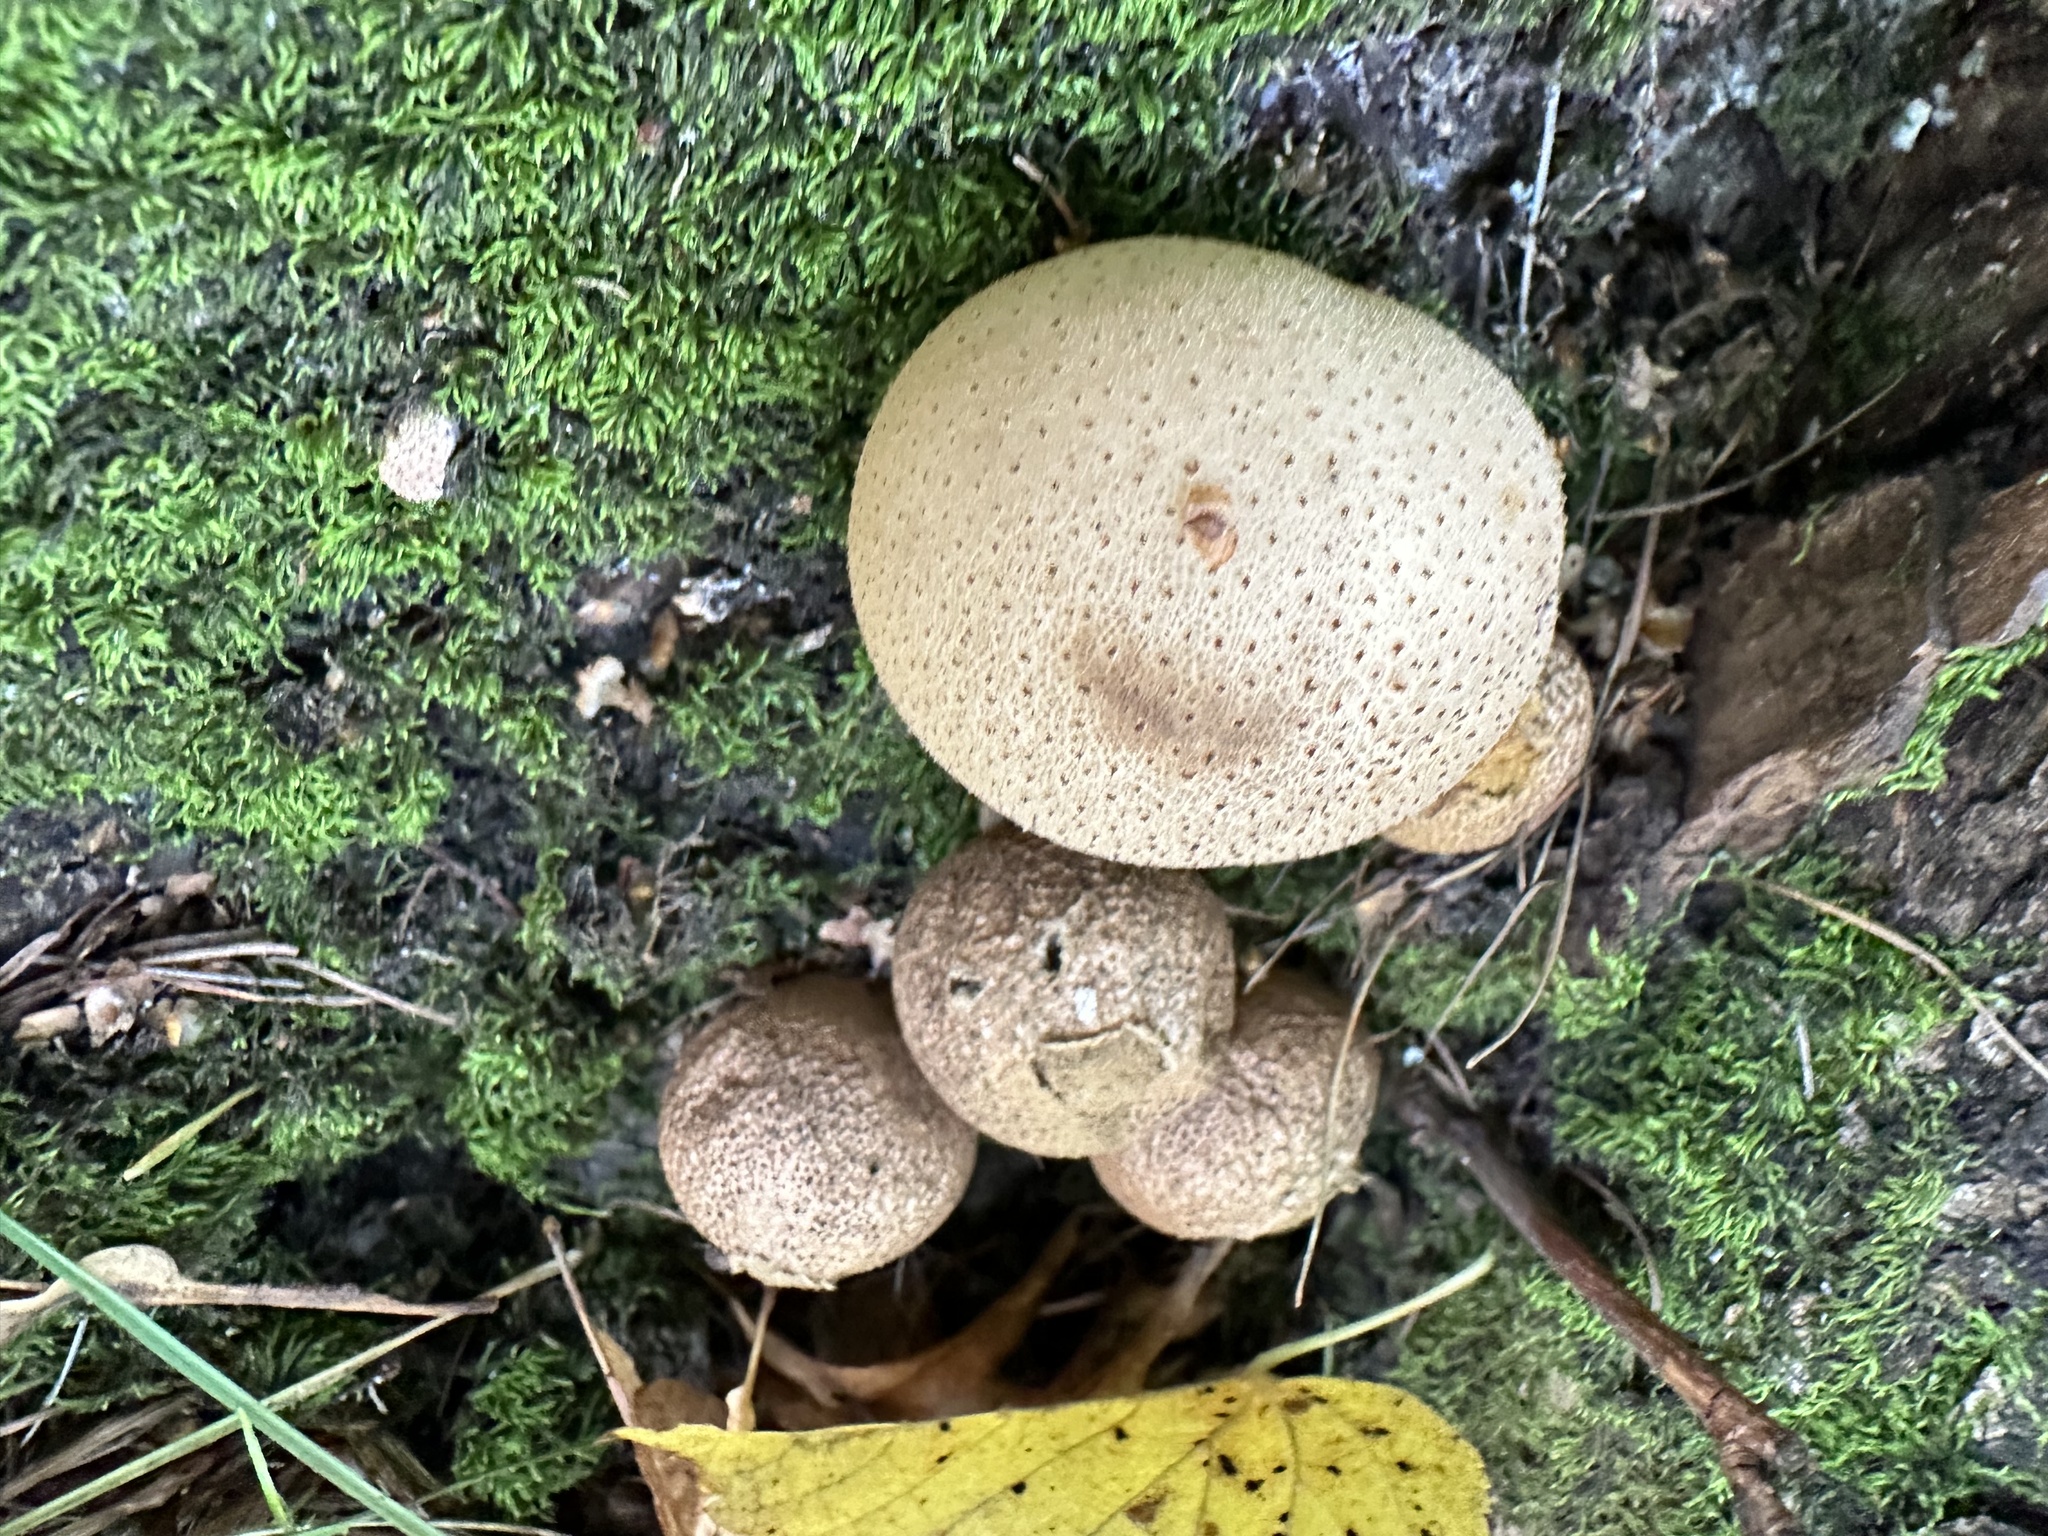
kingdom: Fungi
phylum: Basidiomycota
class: Agaricomycetes
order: Agaricales
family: Lycoperdaceae
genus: Apioperdon
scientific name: Apioperdon pyriforme
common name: Pear-shaped puffball
